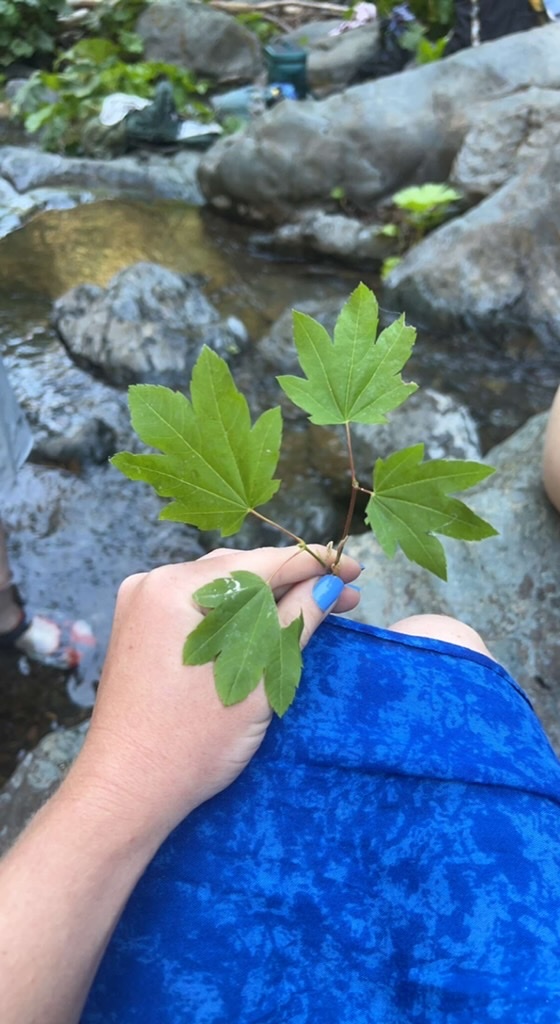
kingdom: Plantae
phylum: Tracheophyta
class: Magnoliopsida
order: Sapindales
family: Sapindaceae
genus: Acer
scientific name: Acer circinatum
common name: Vine maple
